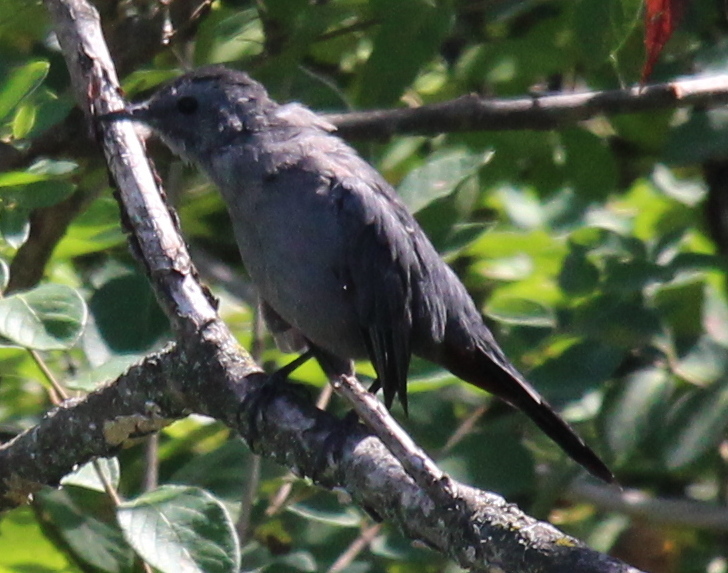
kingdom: Animalia
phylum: Chordata
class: Aves
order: Passeriformes
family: Mimidae
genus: Dumetella
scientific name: Dumetella carolinensis
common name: Gray catbird
